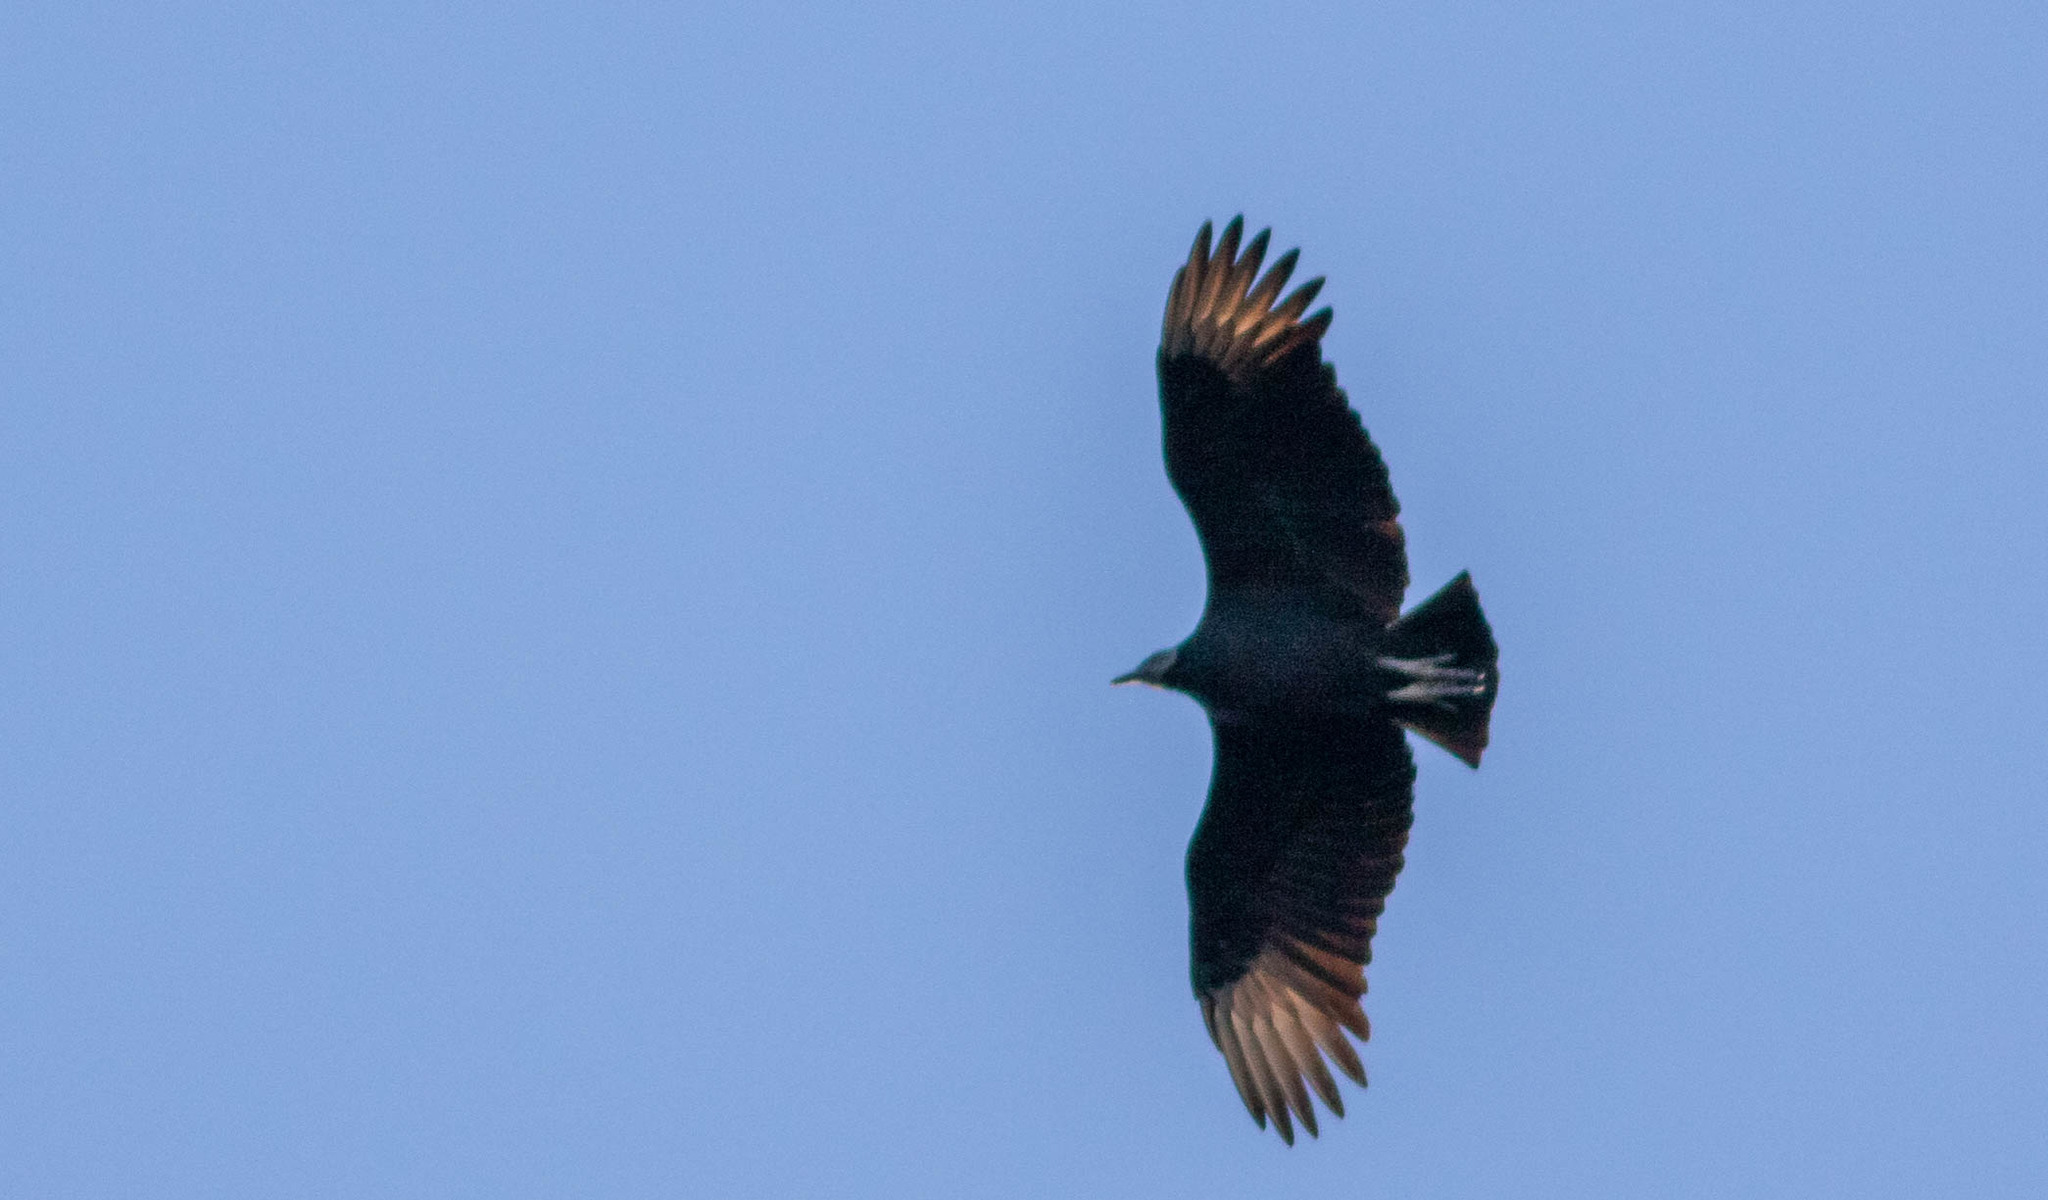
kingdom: Animalia
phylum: Chordata
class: Aves
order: Accipitriformes
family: Cathartidae
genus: Coragyps
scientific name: Coragyps atratus
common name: Black vulture
